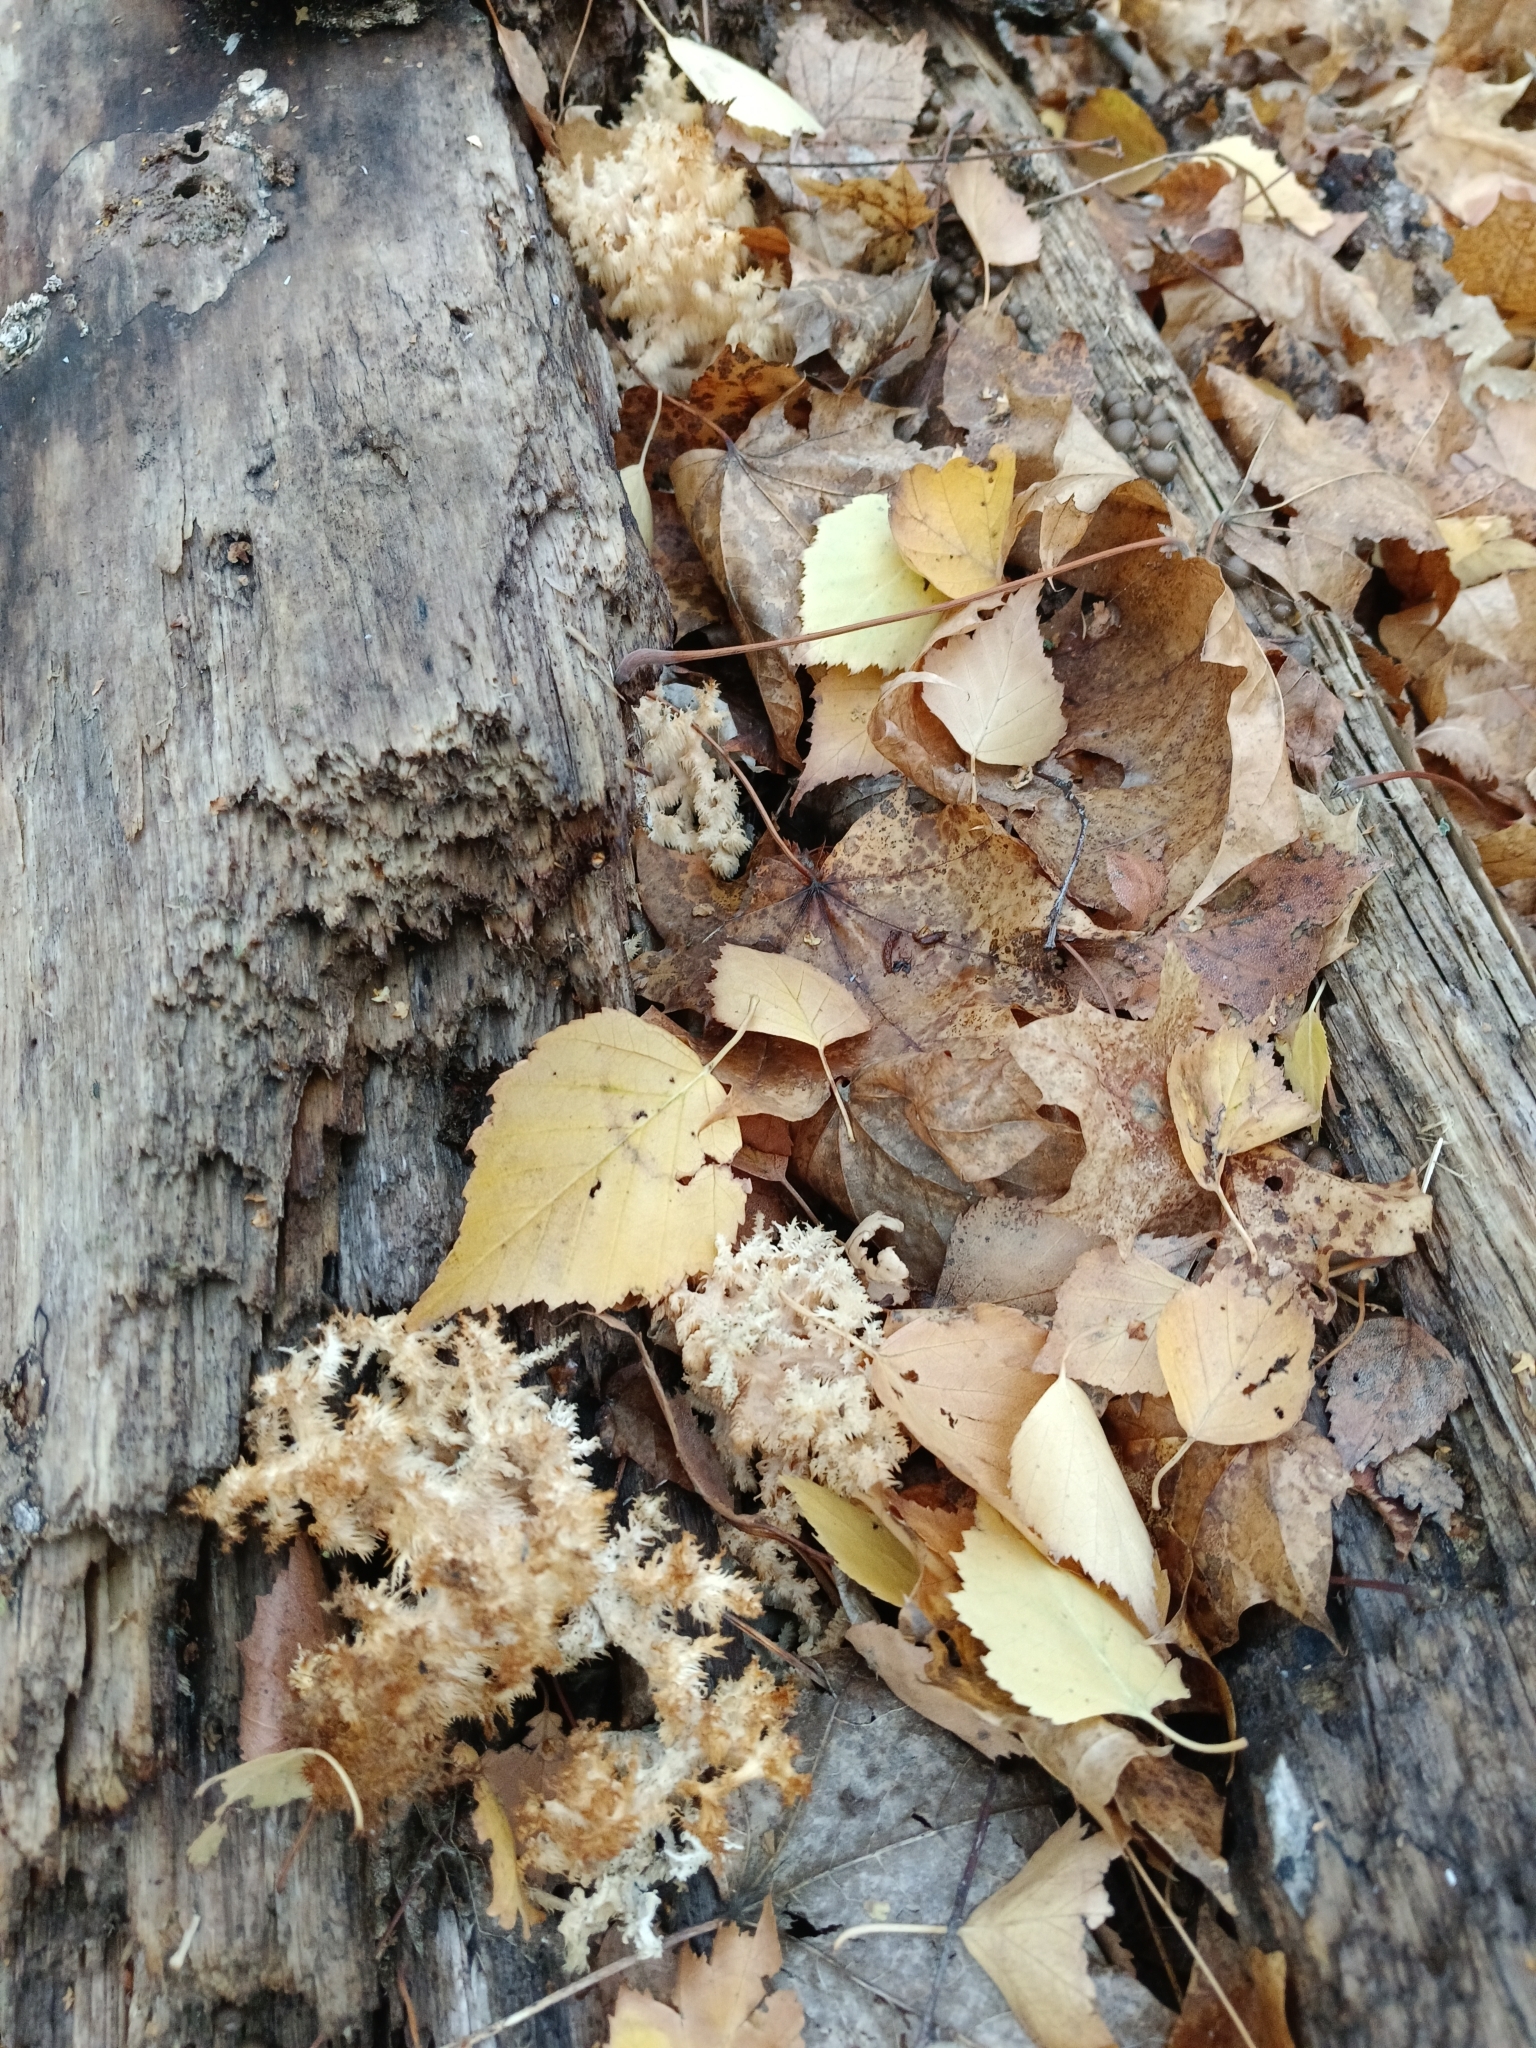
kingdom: Fungi
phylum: Basidiomycota
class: Agaricomycetes
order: Russulales
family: Hericiaceae
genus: Hericium
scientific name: Hericium coralloides
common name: Coral tooth
